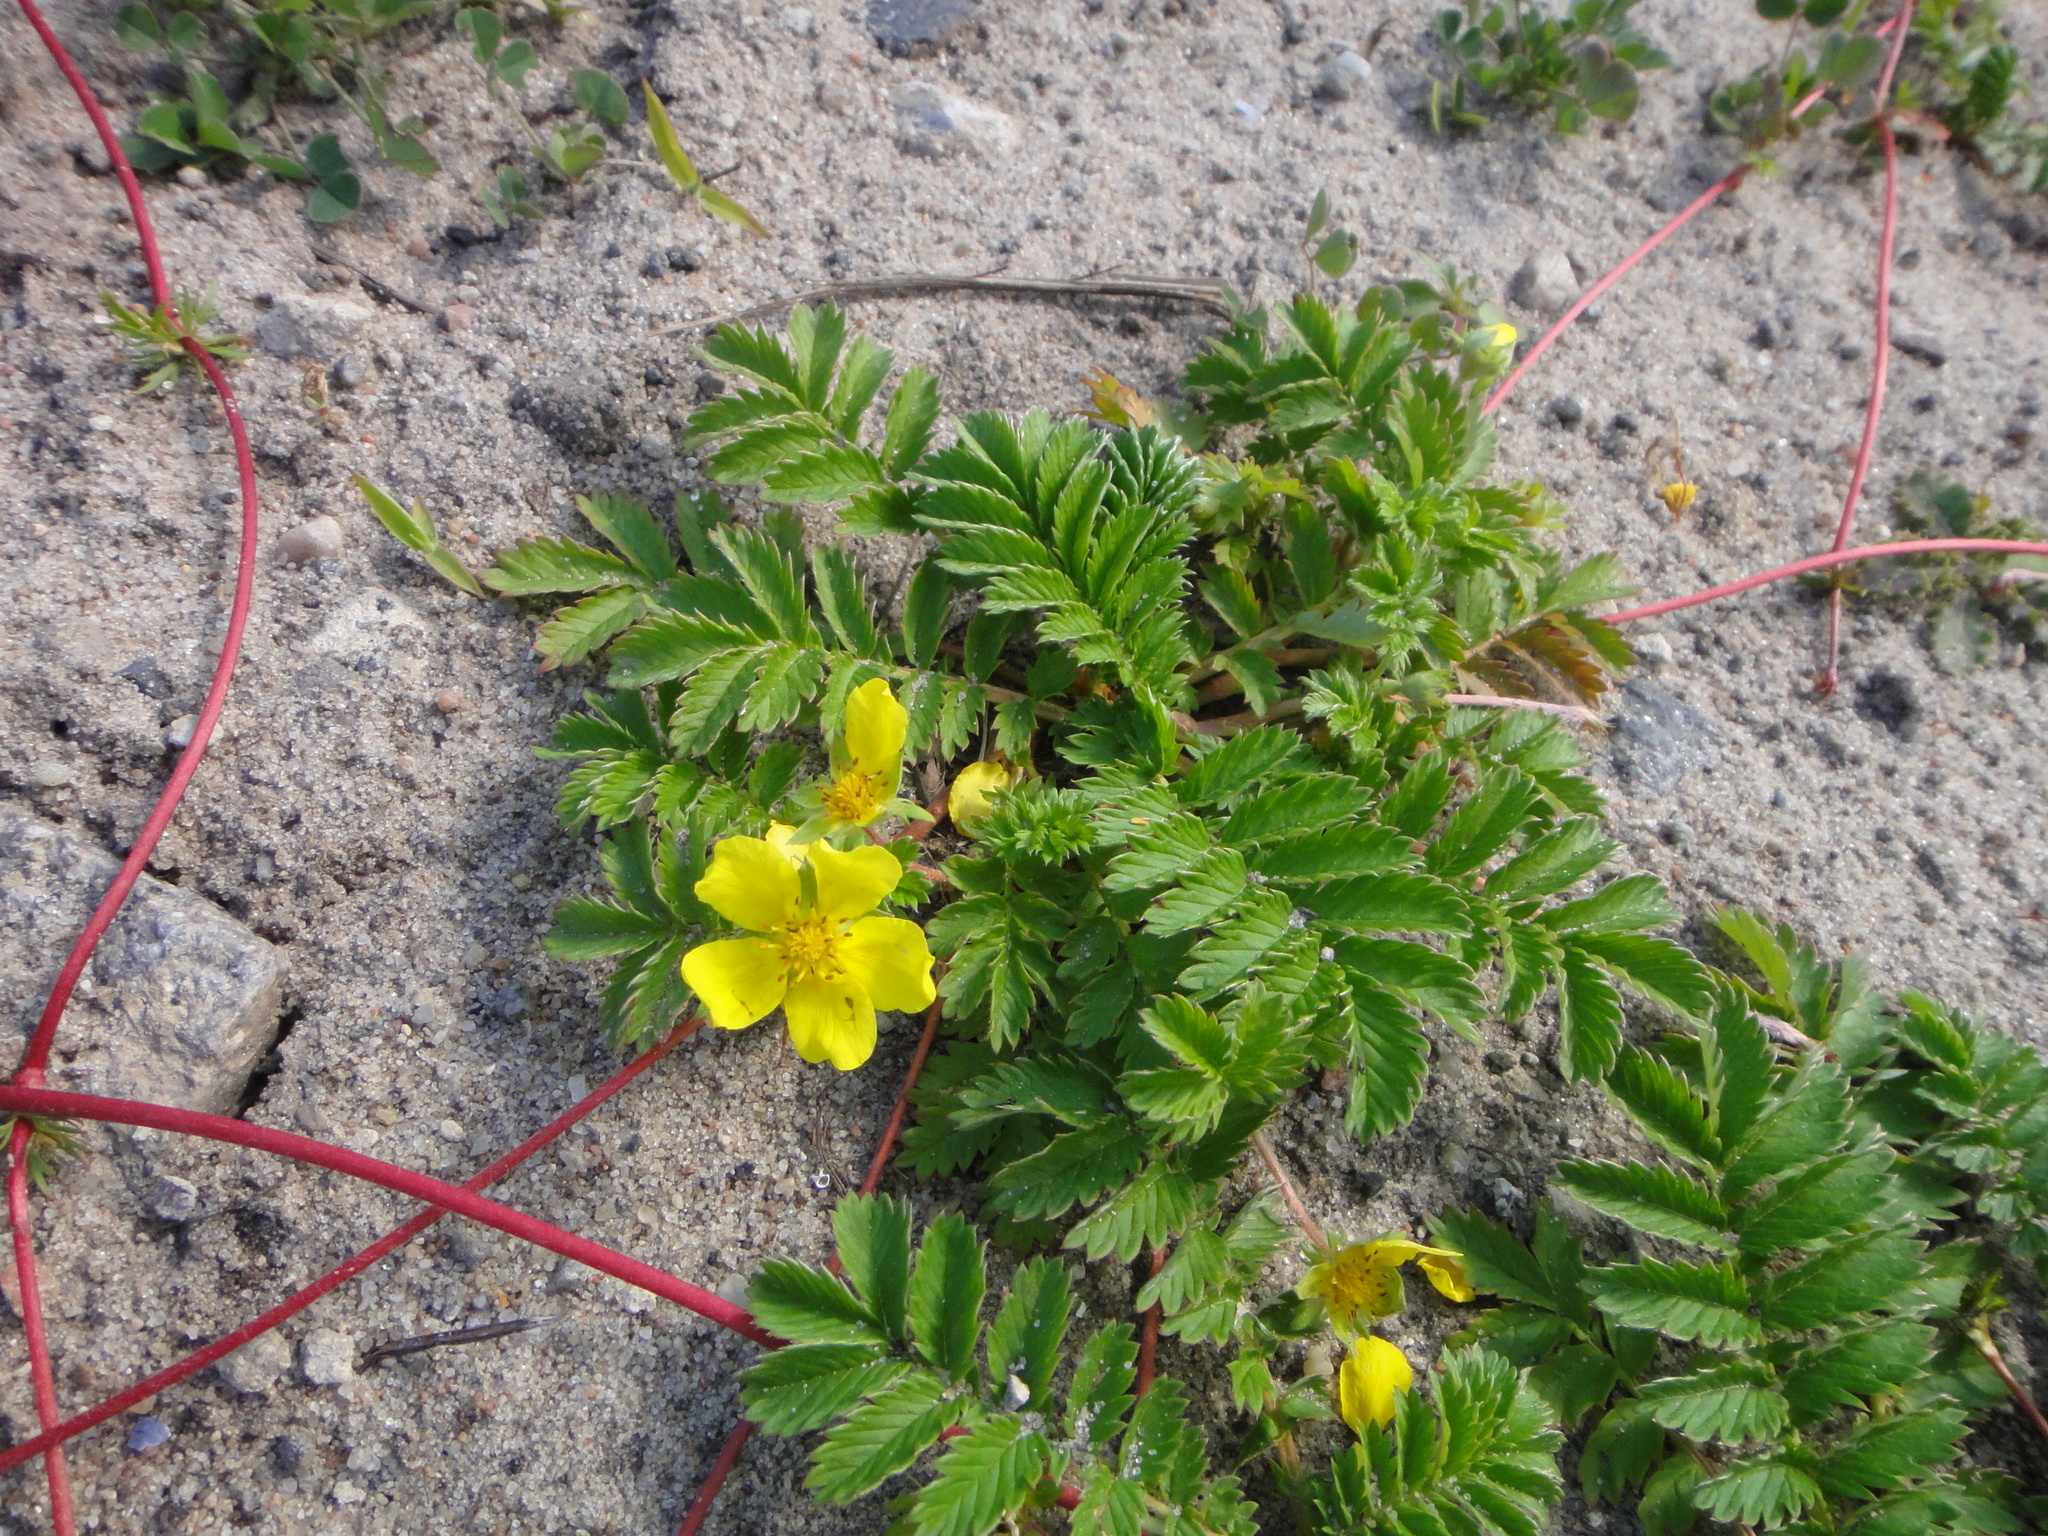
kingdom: Plantae
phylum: Tracheophyta
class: Magnoliopsida
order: Rosales
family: Rosaceae
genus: Argentina
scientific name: Argentina anserina
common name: Common silverweed
